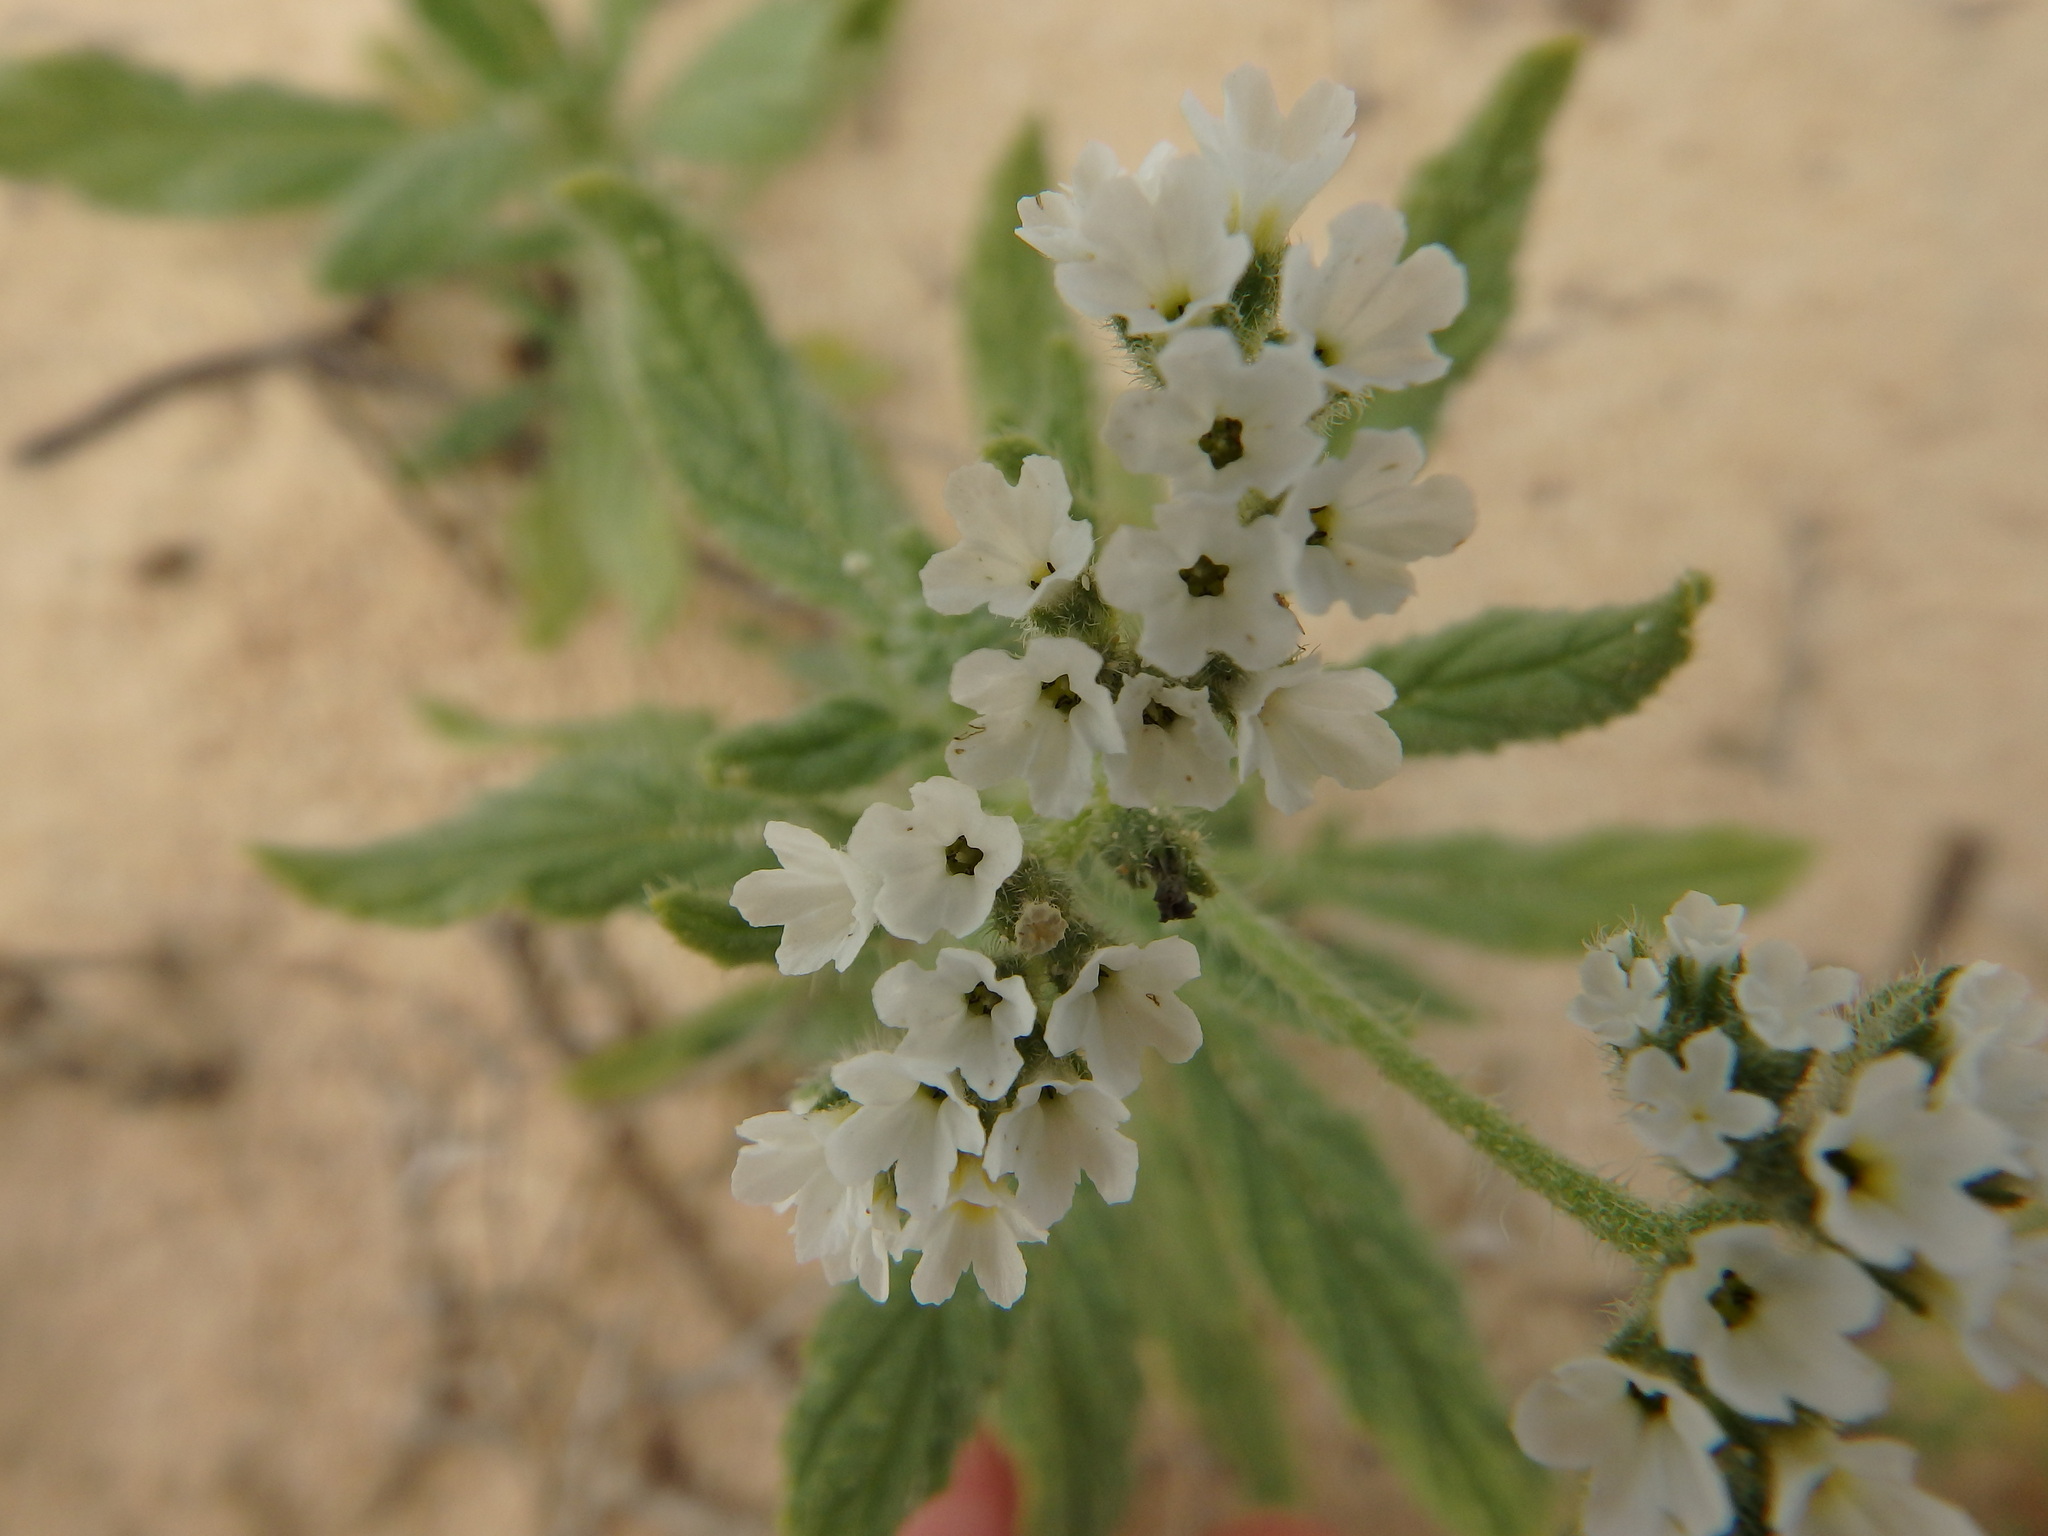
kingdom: Plantae
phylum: Tracheophyta
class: Magnoliopsida
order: Boraginales
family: Heliotropiaceae
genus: Heliotropium
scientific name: Heliotropium ramosissimum
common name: Wavy heliotrope
